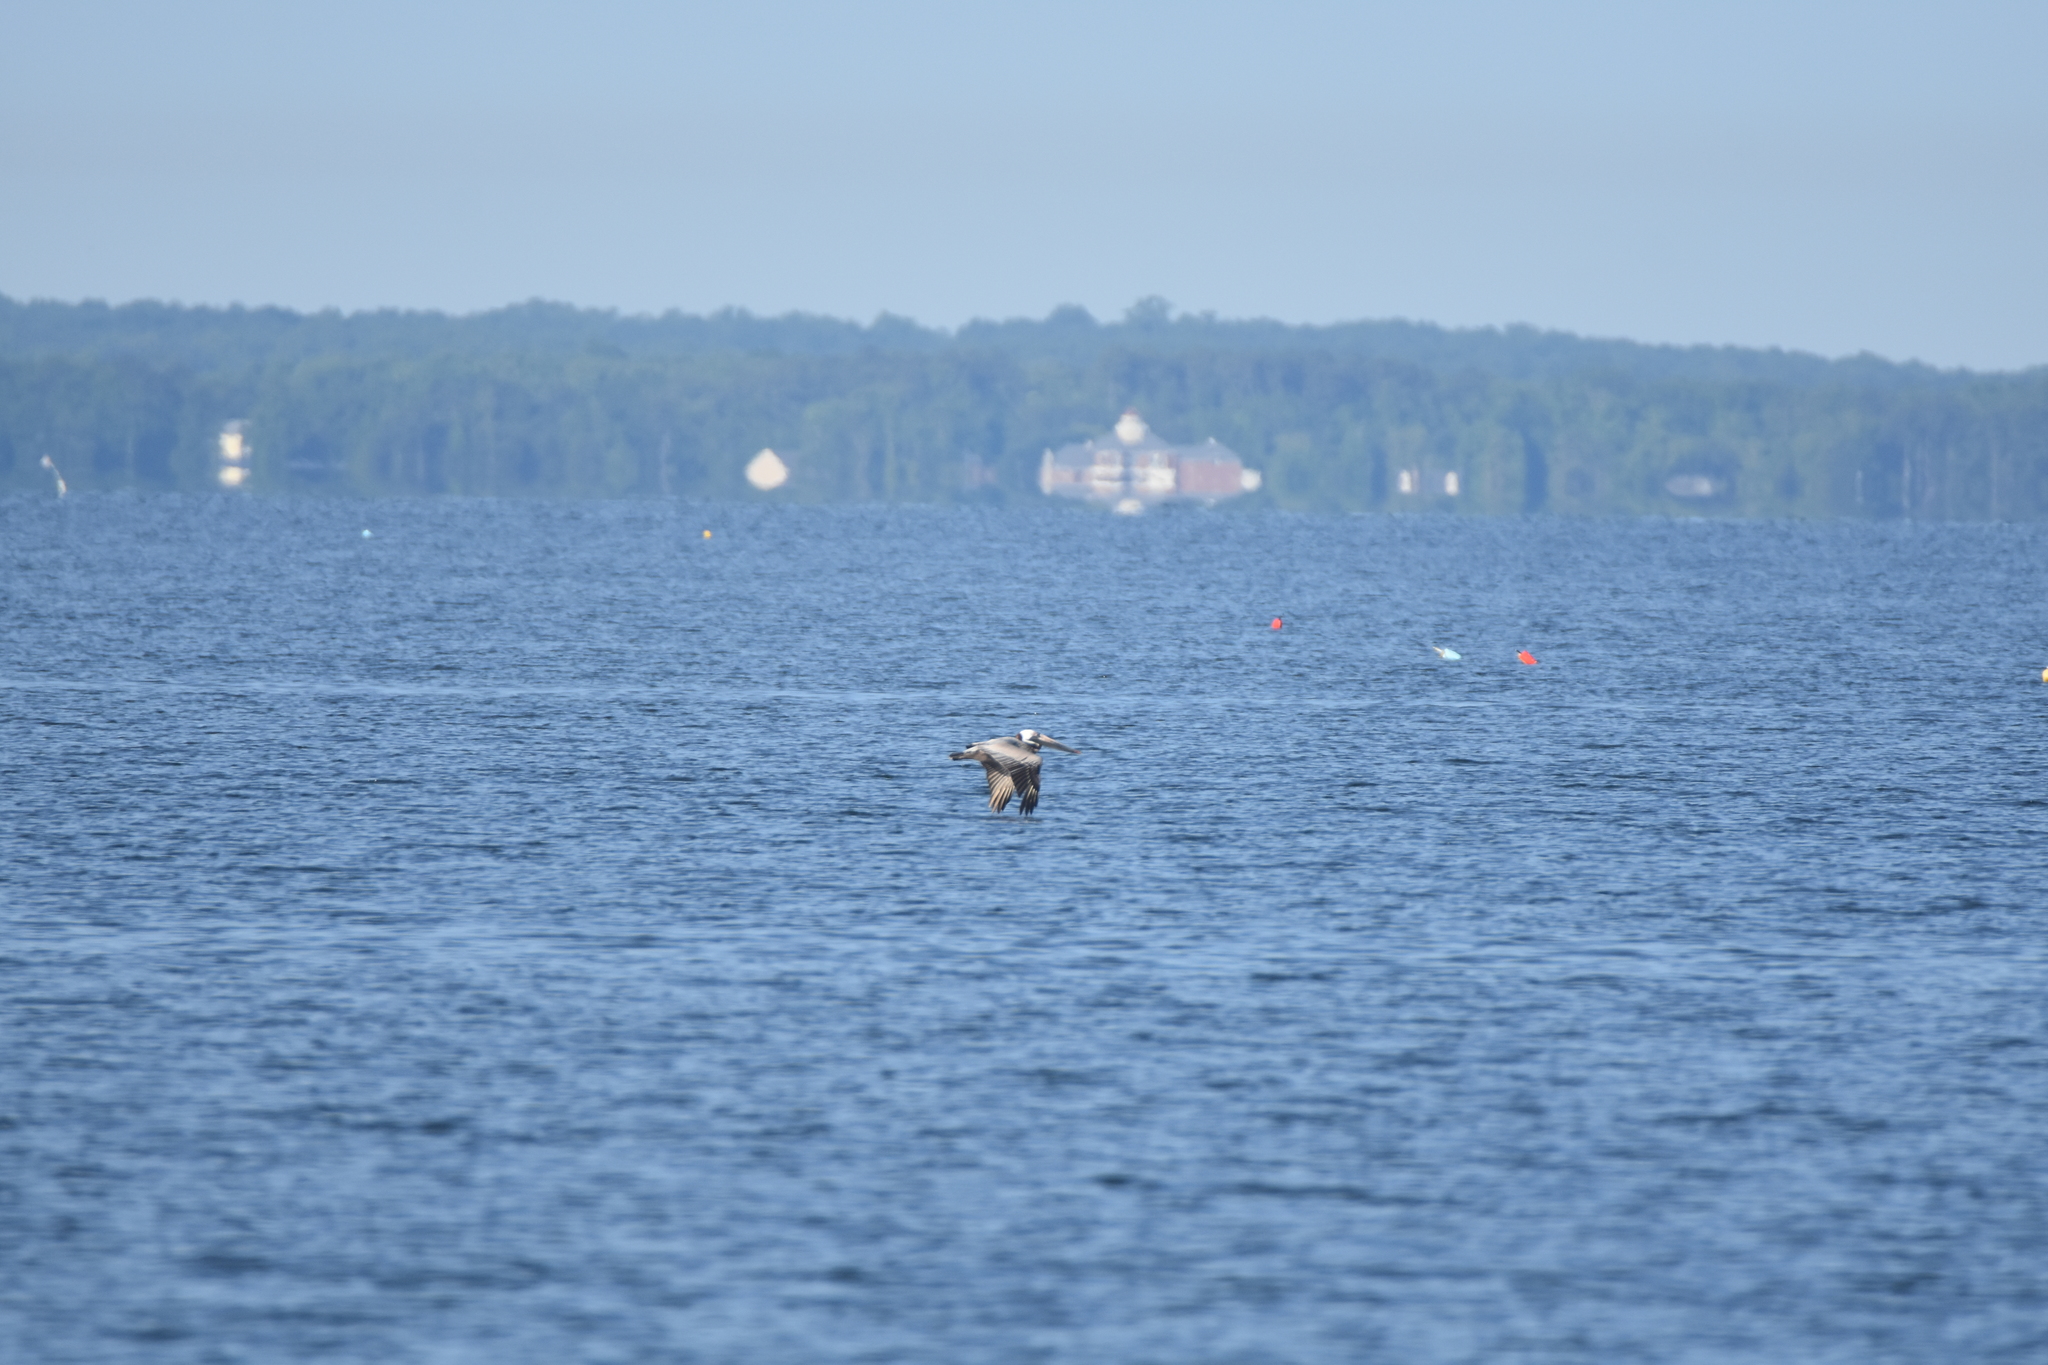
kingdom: Animalia
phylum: Chordata
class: Aves
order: Pelecaniformes
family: Pelecanidae
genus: Pelecanus
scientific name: Pelecanus occidentalis
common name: Brown pelican
